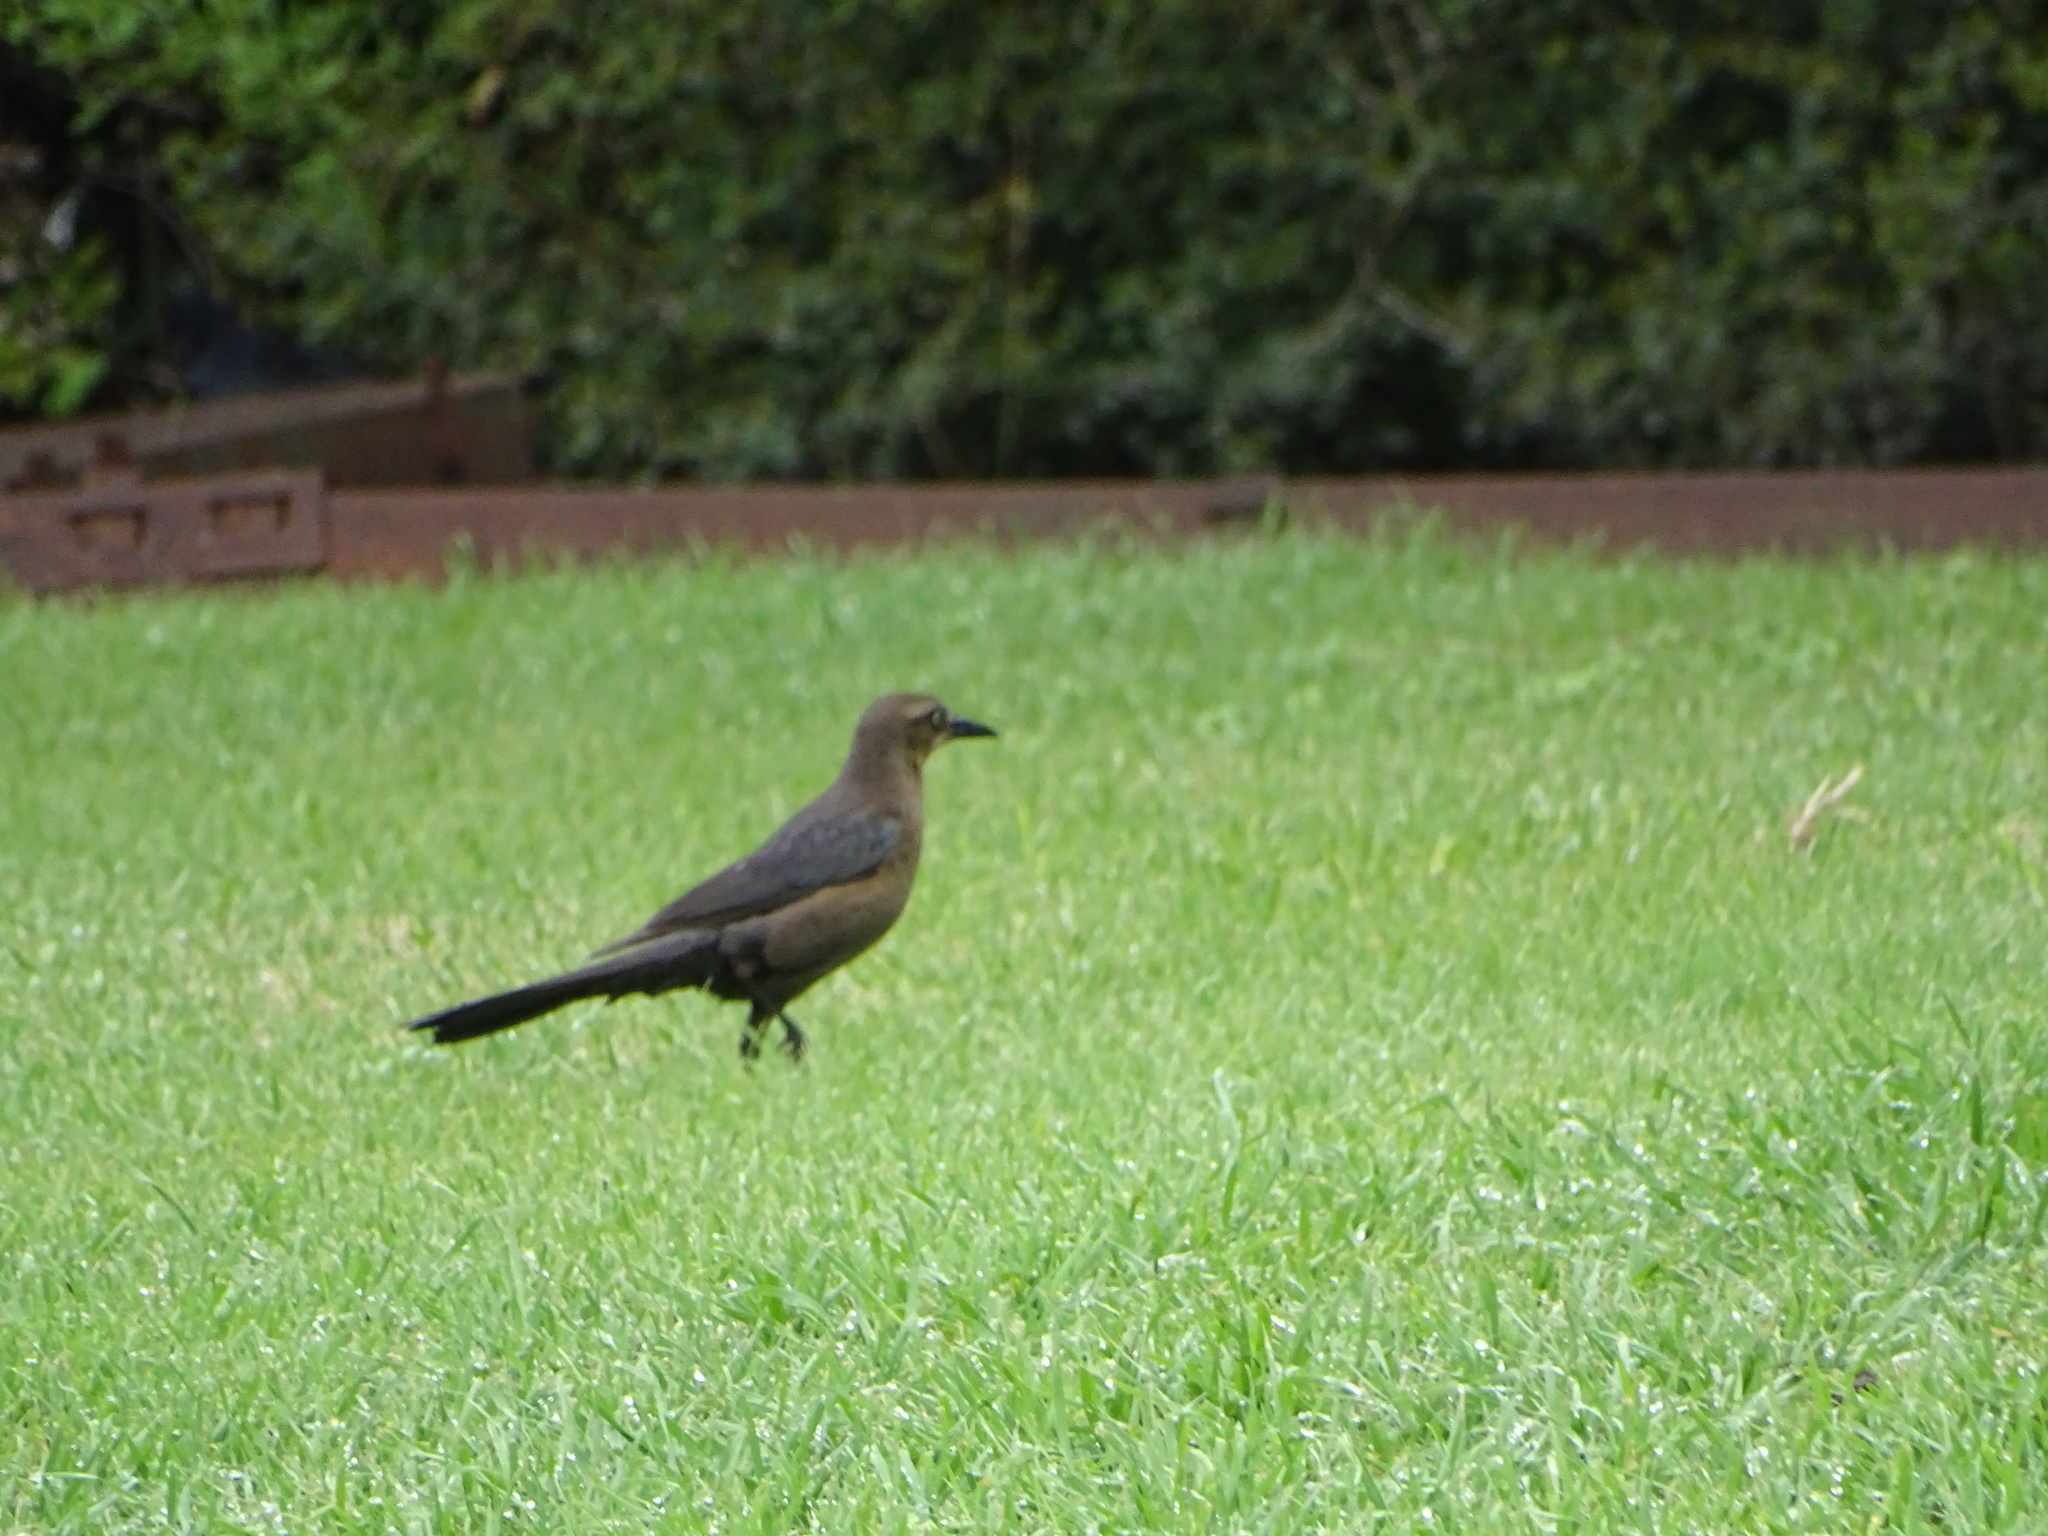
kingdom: Animalia
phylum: Chordata
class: Aves
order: Passeriformes
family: Icteridae
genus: Quiscalus
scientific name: Quiscalus mexicanus
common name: Great-tailed grackle
